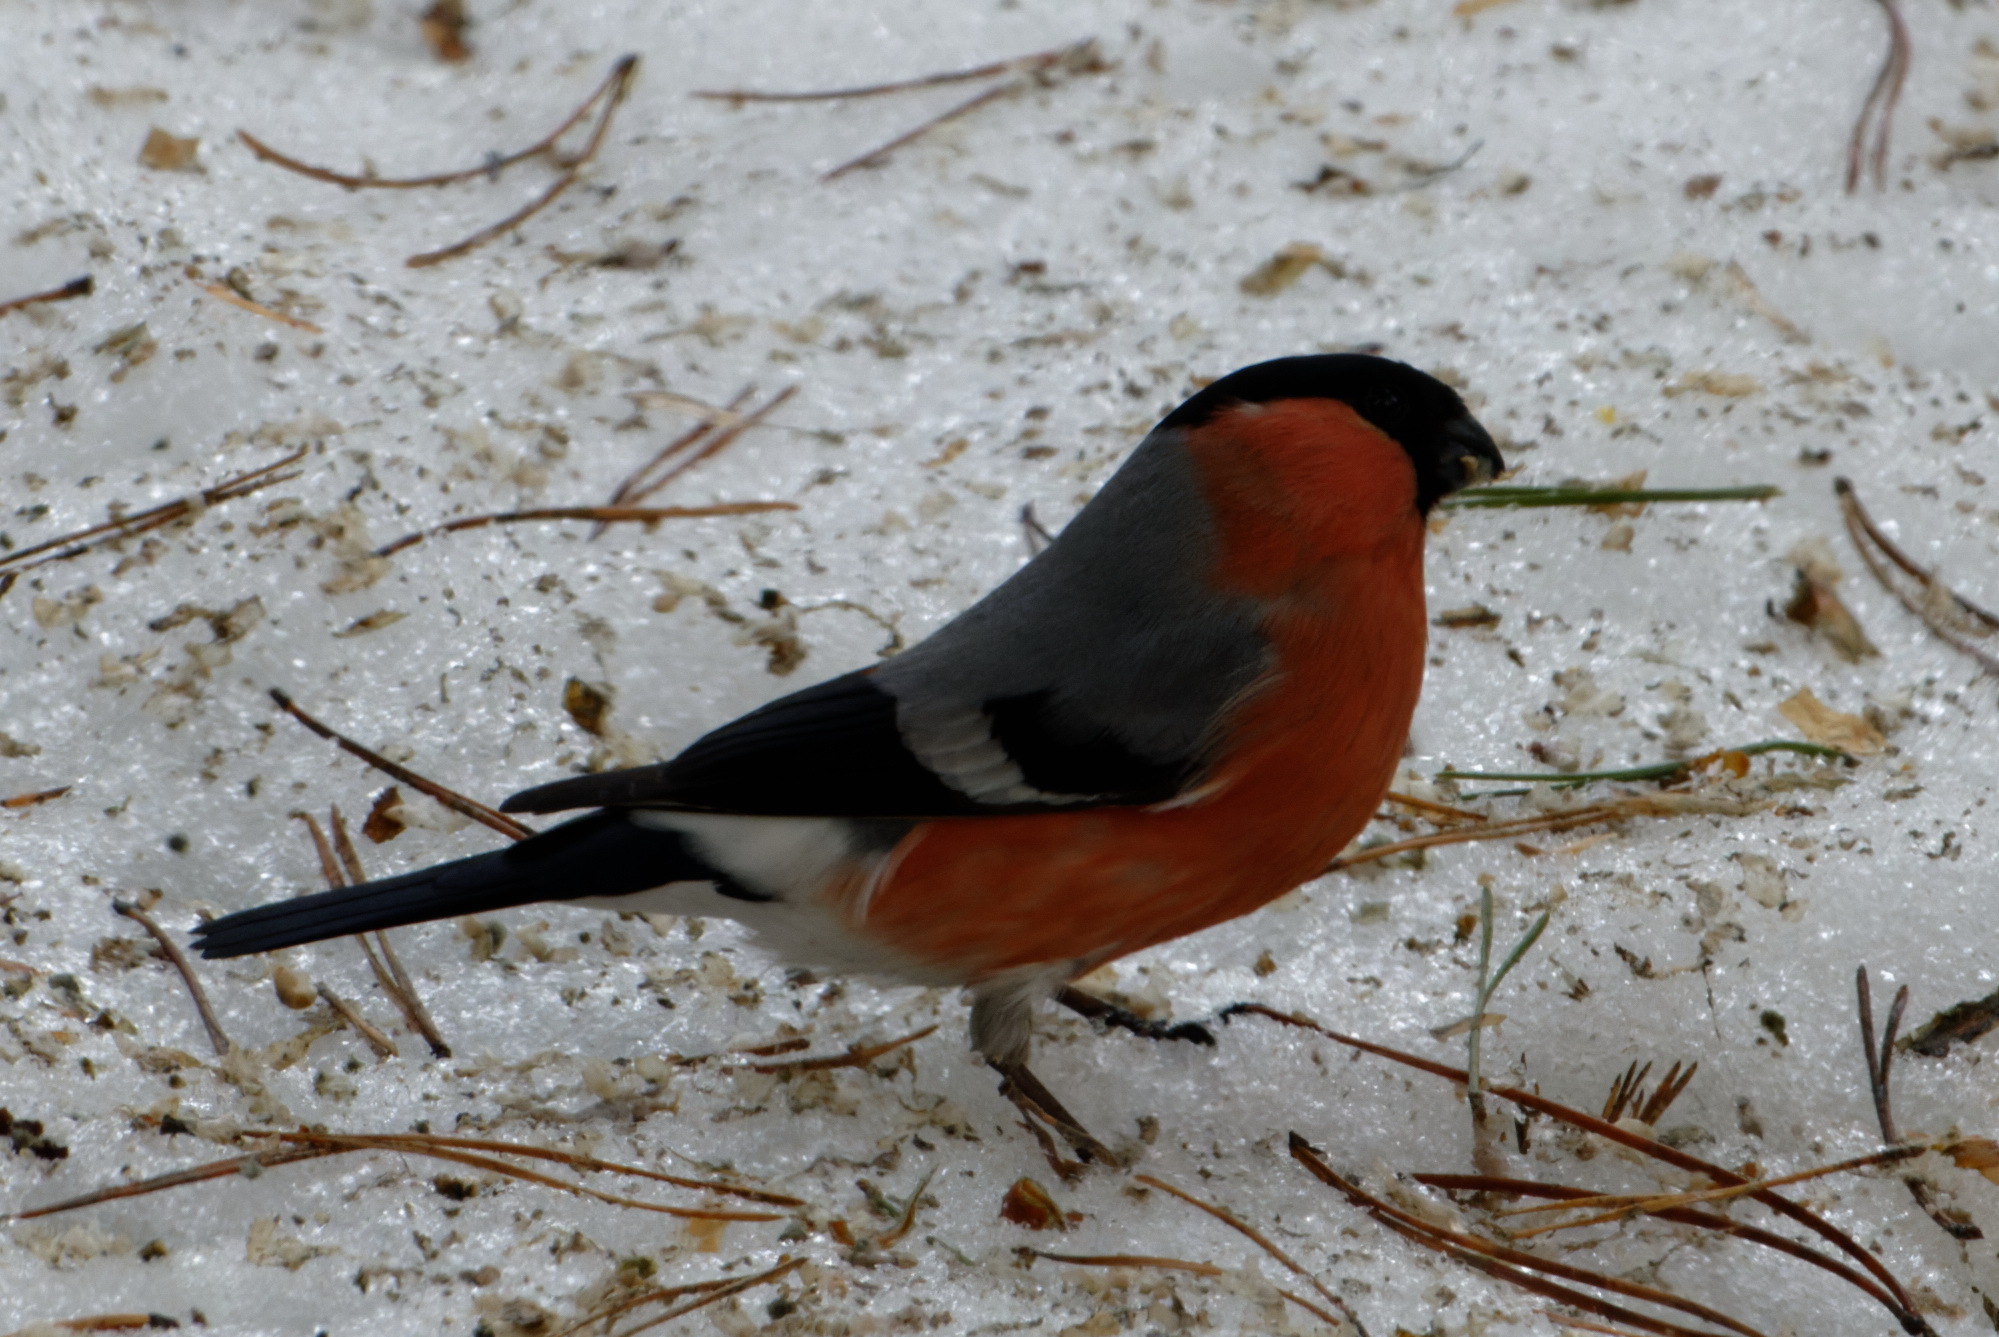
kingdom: Animalia
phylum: Chordata
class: Aves
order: Passeriformes
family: Fringillidae
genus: Pyrrhula
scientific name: Pyrrhula pyrrhula
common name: Eurasian bullfinch
